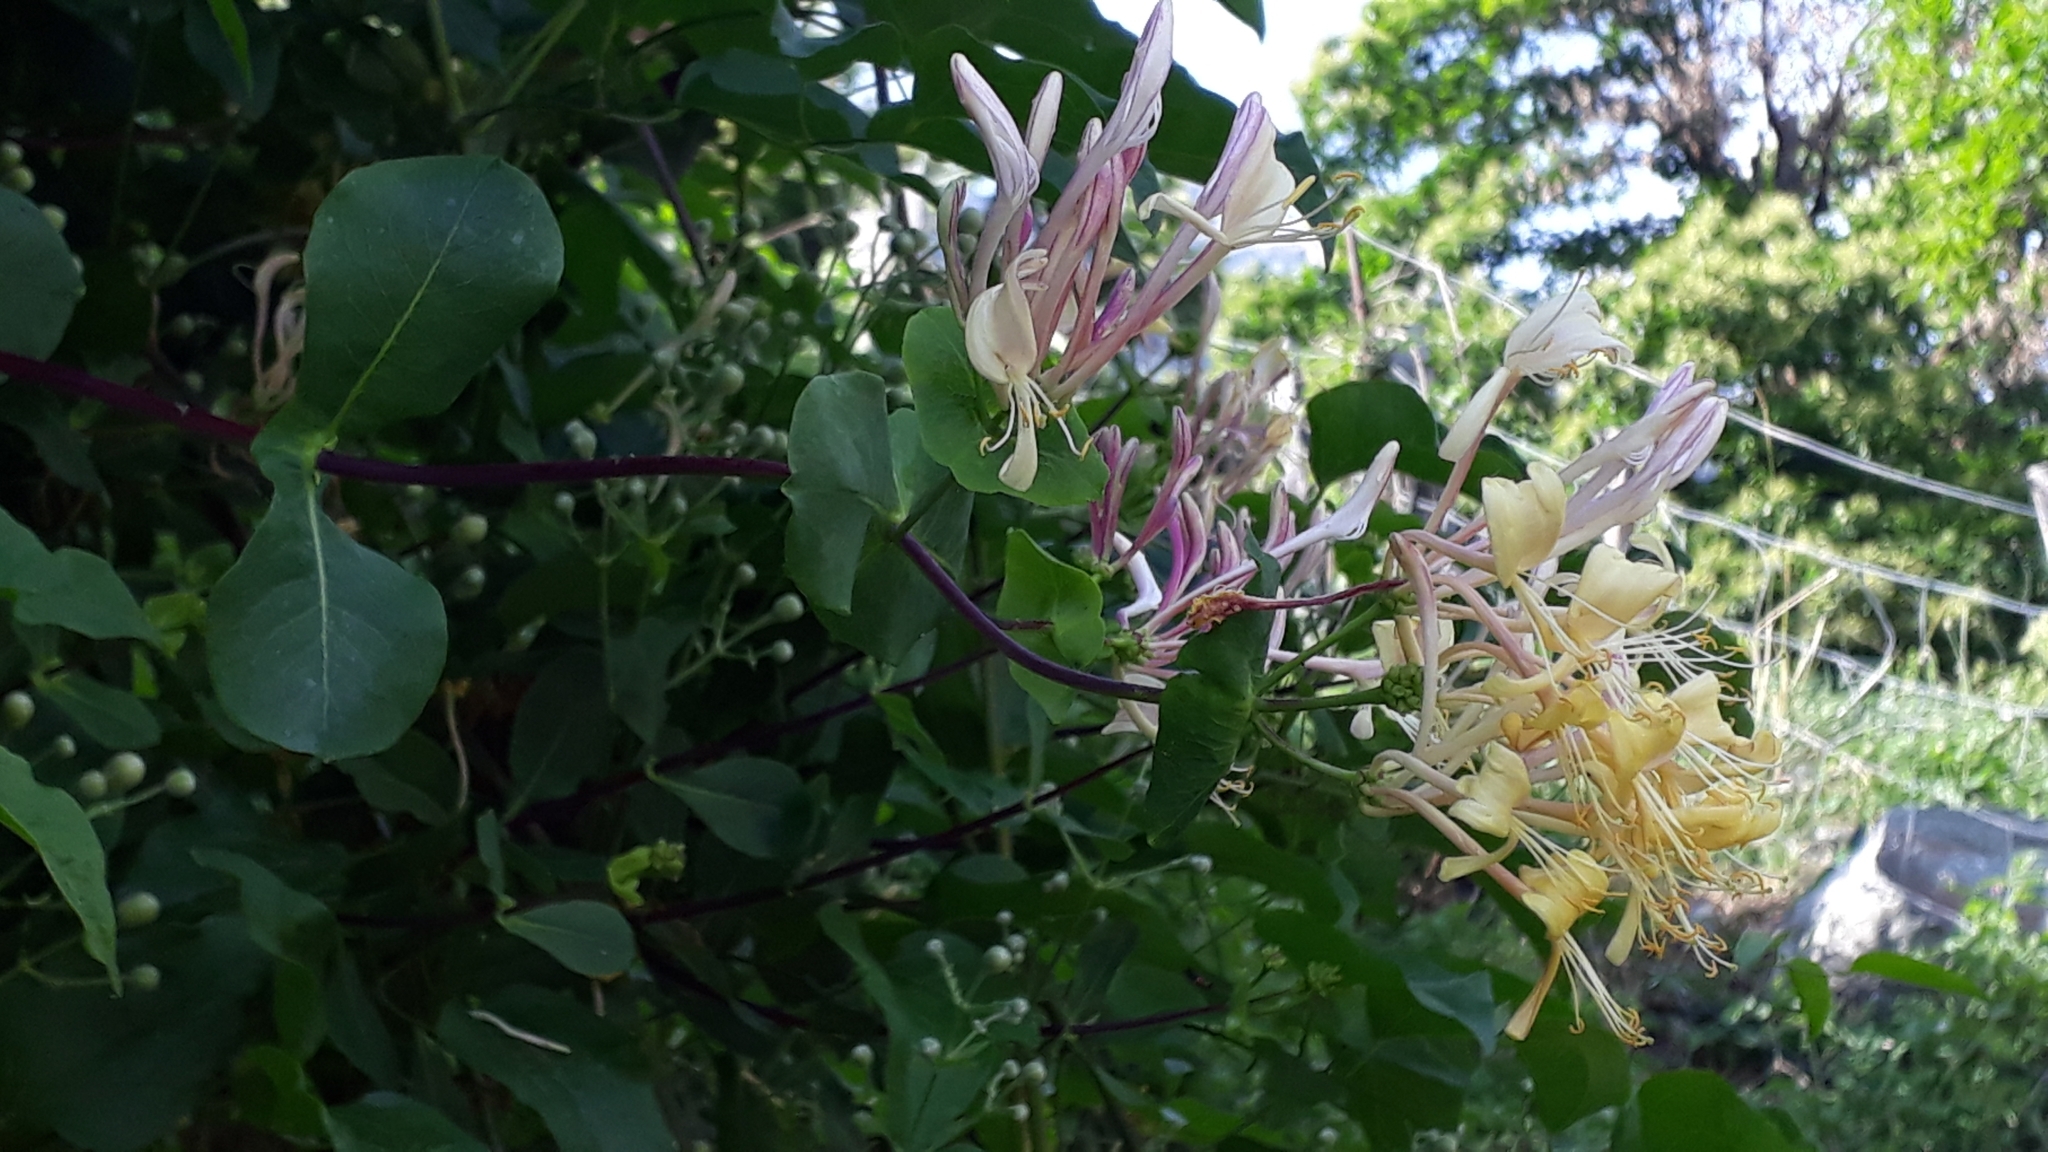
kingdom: Plantae
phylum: Tracheophyta
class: Magnoliopsida
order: Dipsacales
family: Caprifoliaceae
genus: Lonicera
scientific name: Lonicera etrusca
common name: Etruscan honeysuckle
